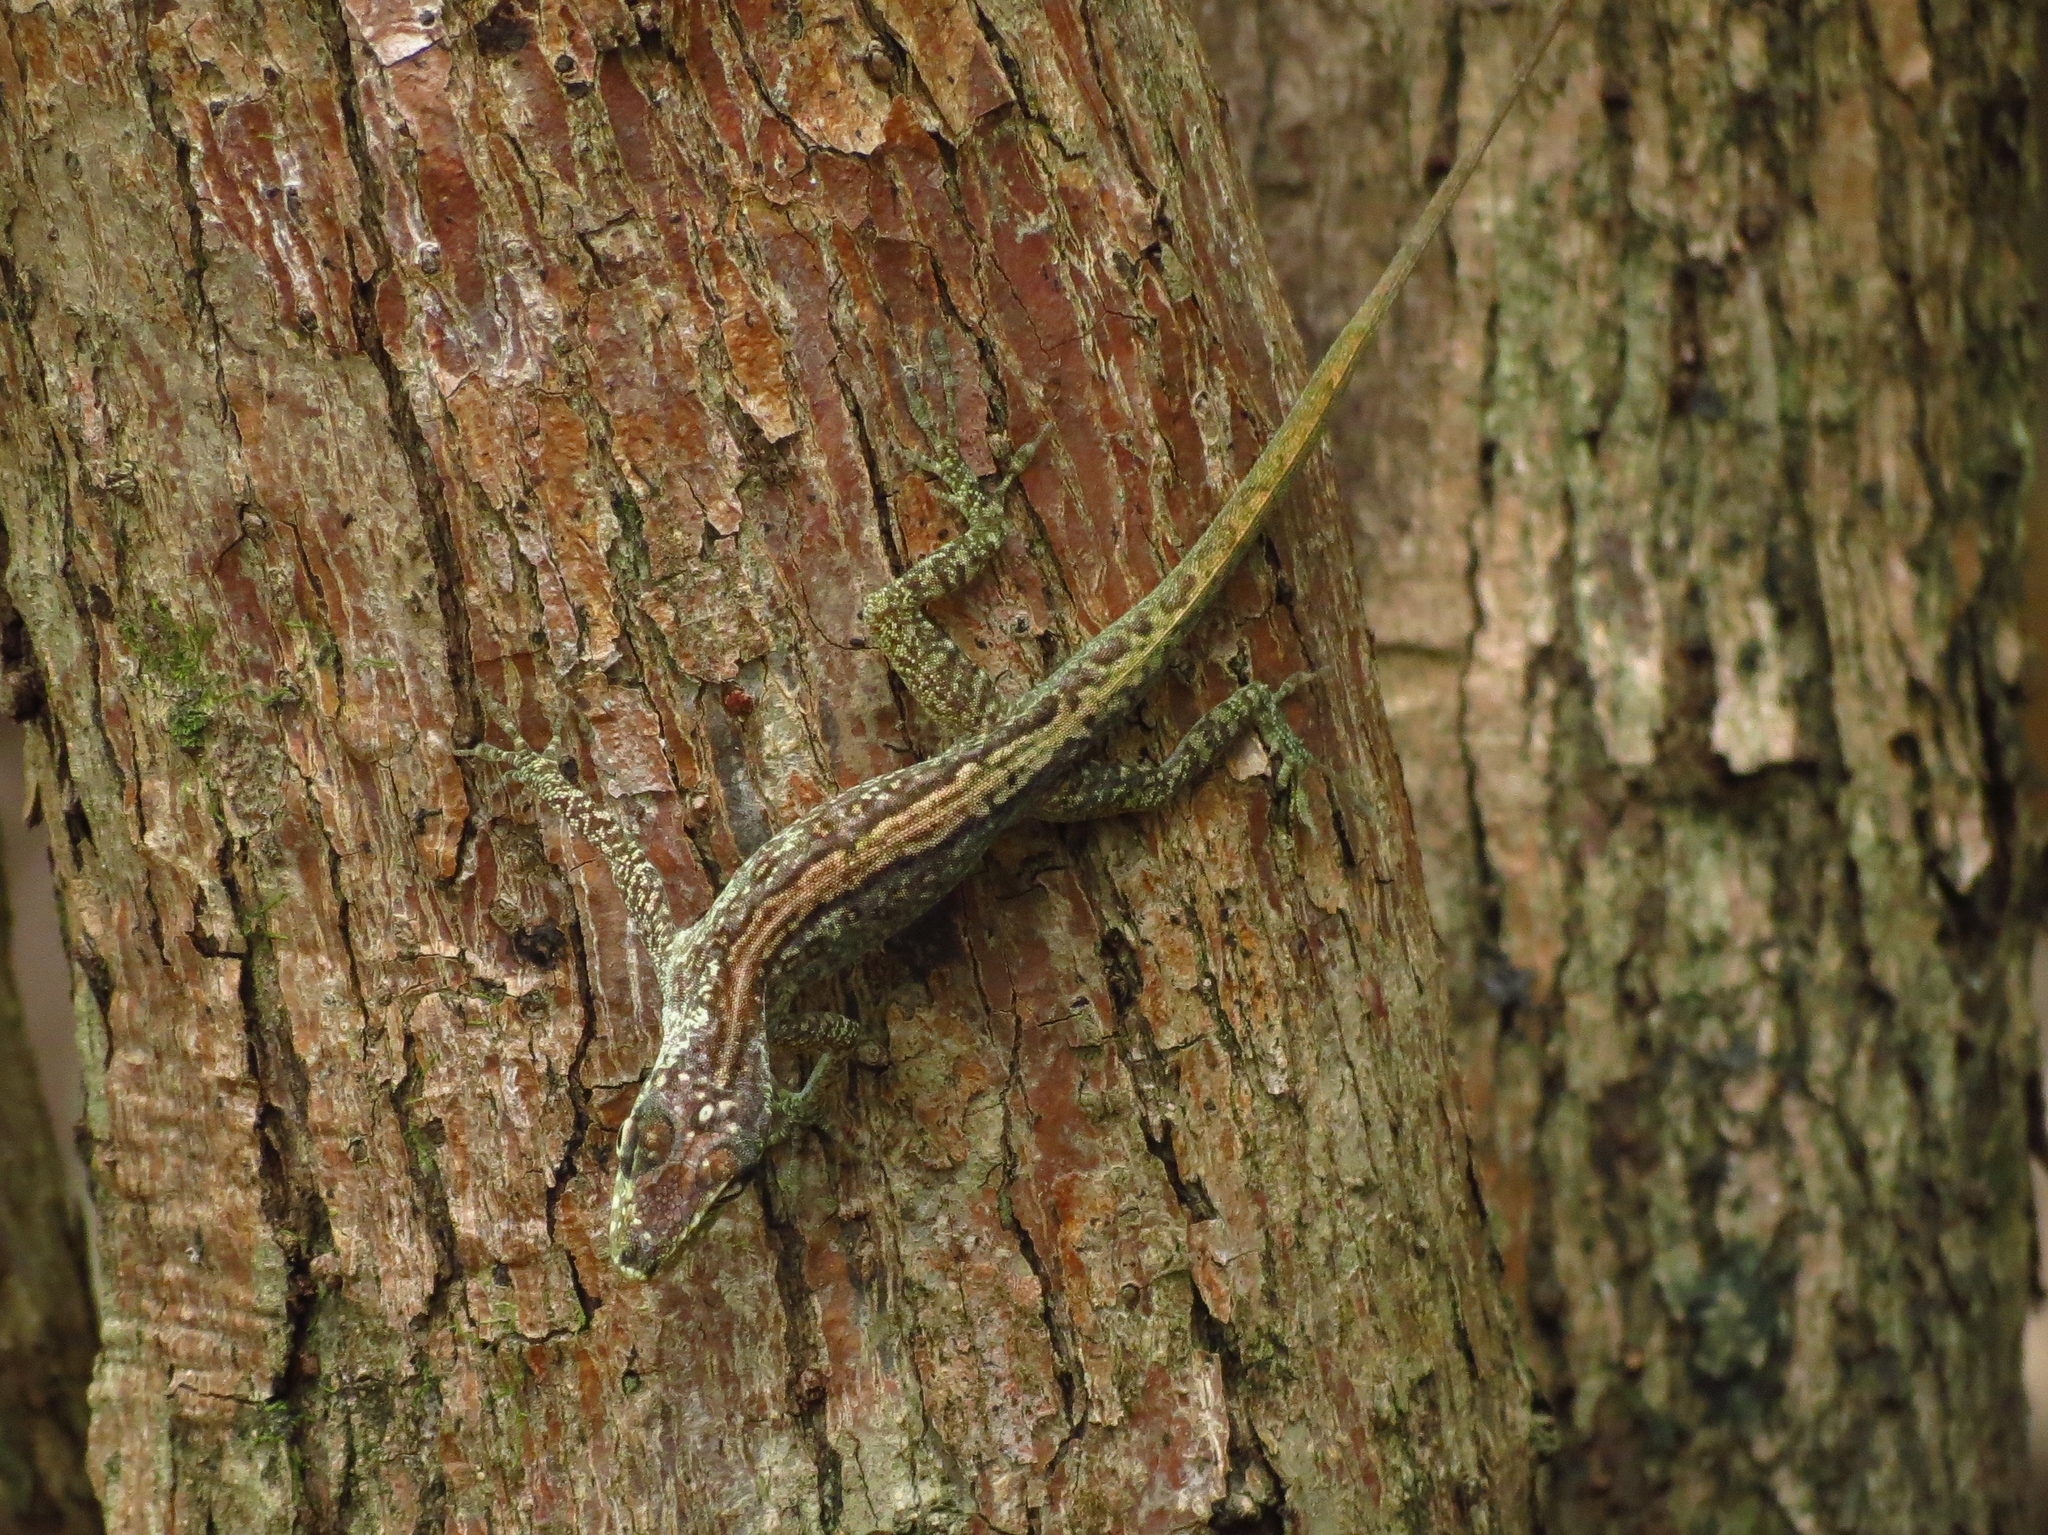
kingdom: Animalia
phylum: Chordata
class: Squamata
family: Dactyloidae
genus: Anolis
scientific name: Anolis roquet
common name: Martinique anole
